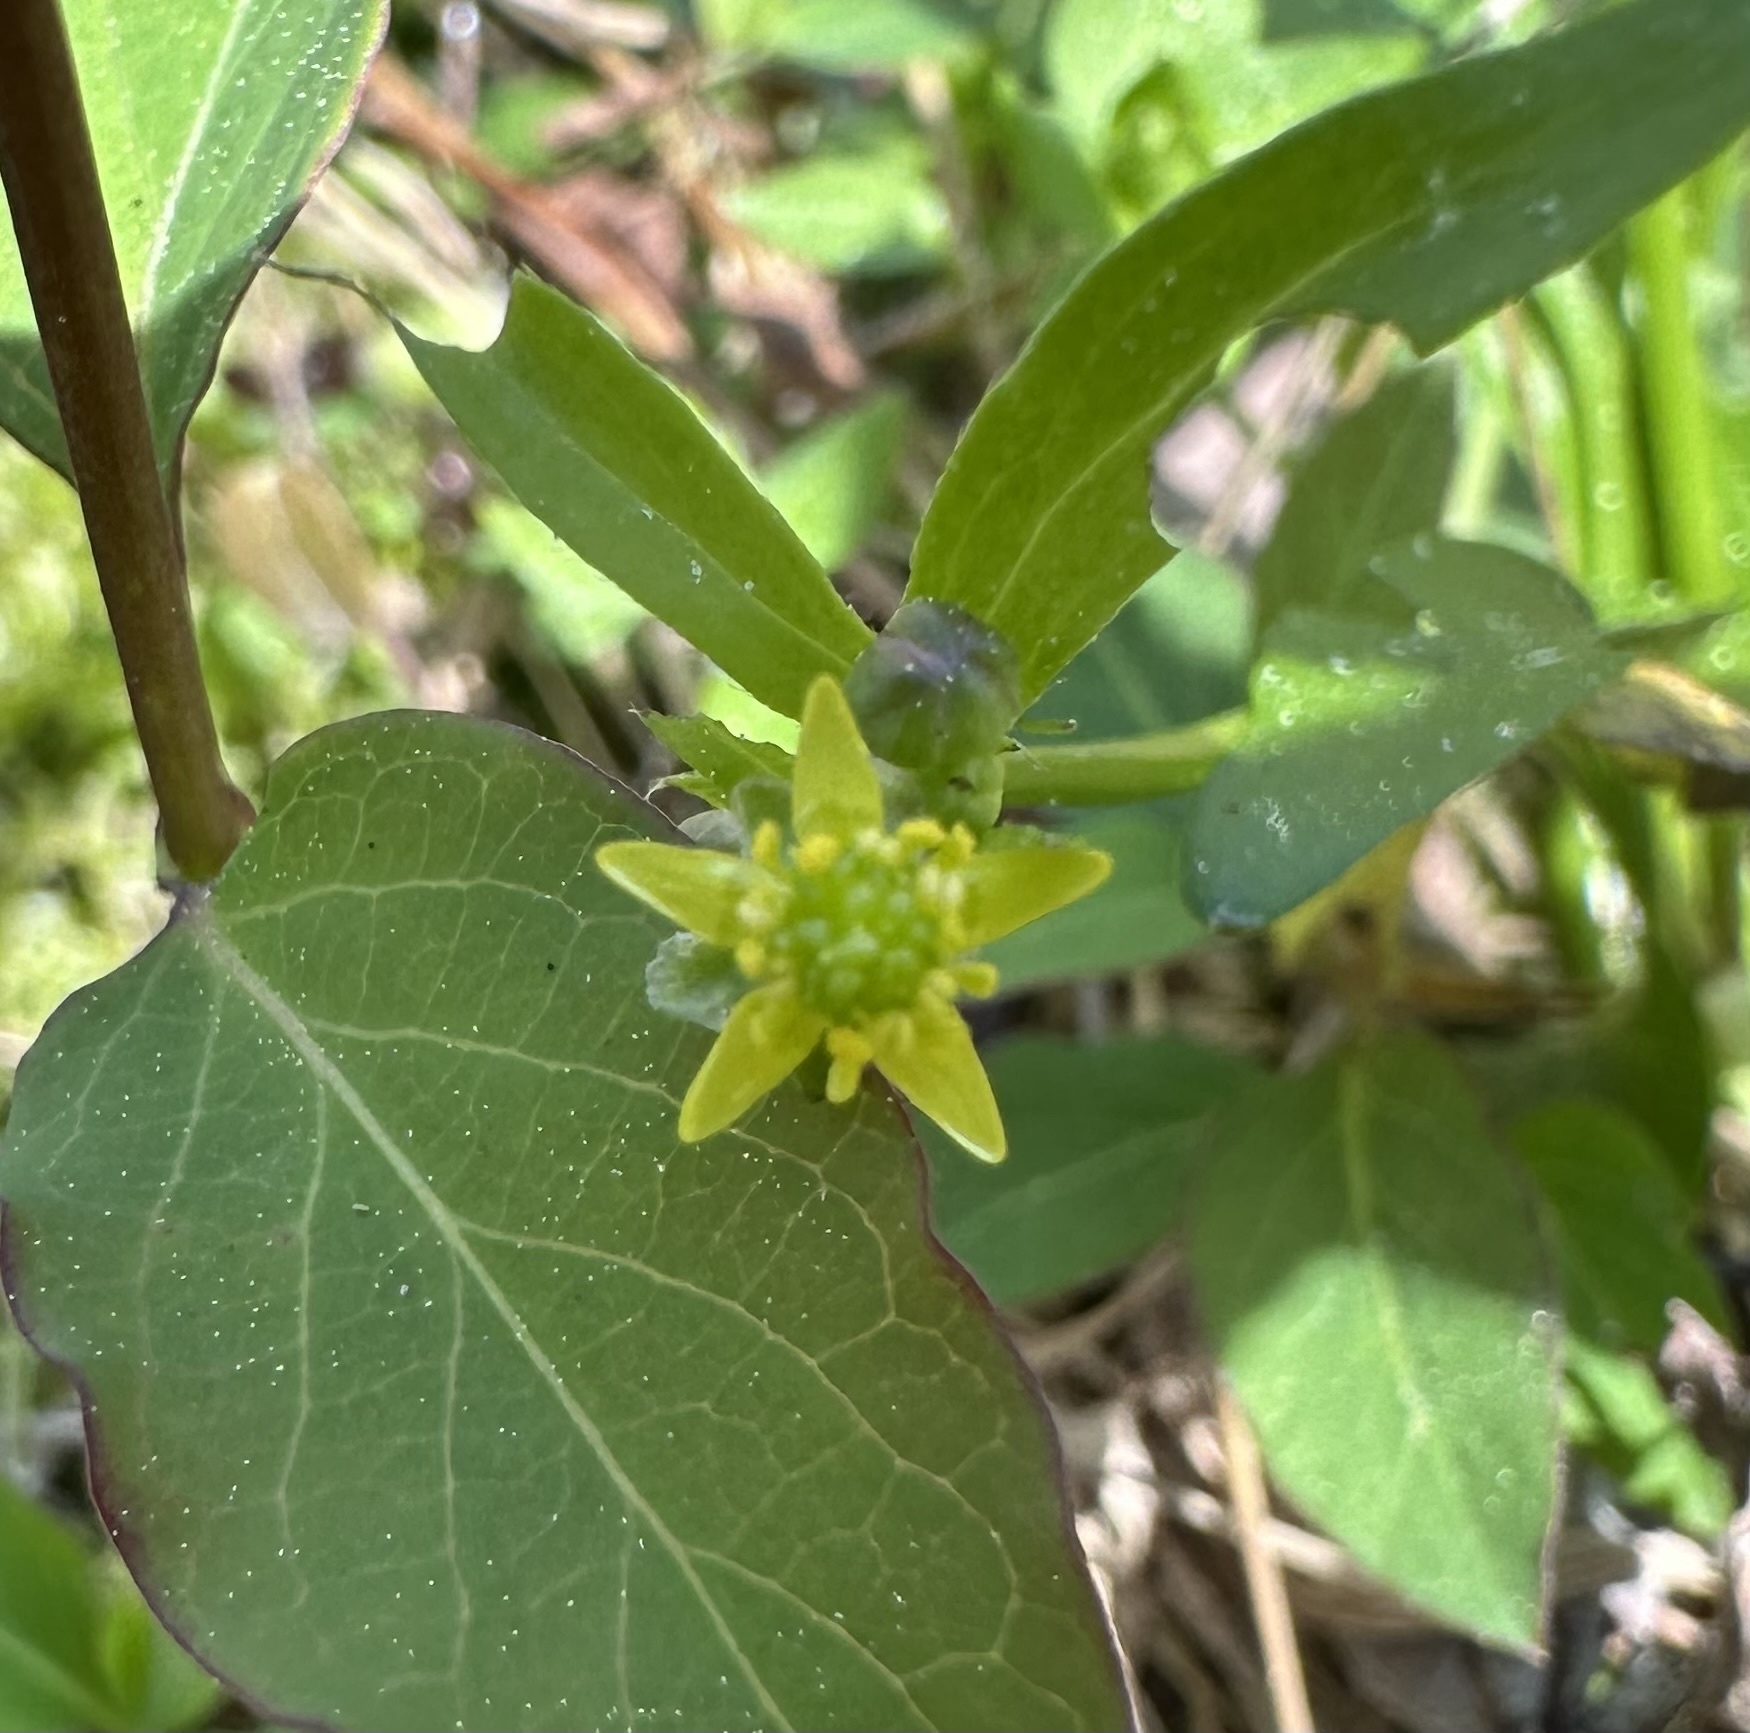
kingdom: Plantae
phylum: Tracheophyta
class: Magnoliopsida
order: Ranunculales
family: Ranunculaceae
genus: Ranunculus
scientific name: Ranunculus abortivus
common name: Early wood buttercup
